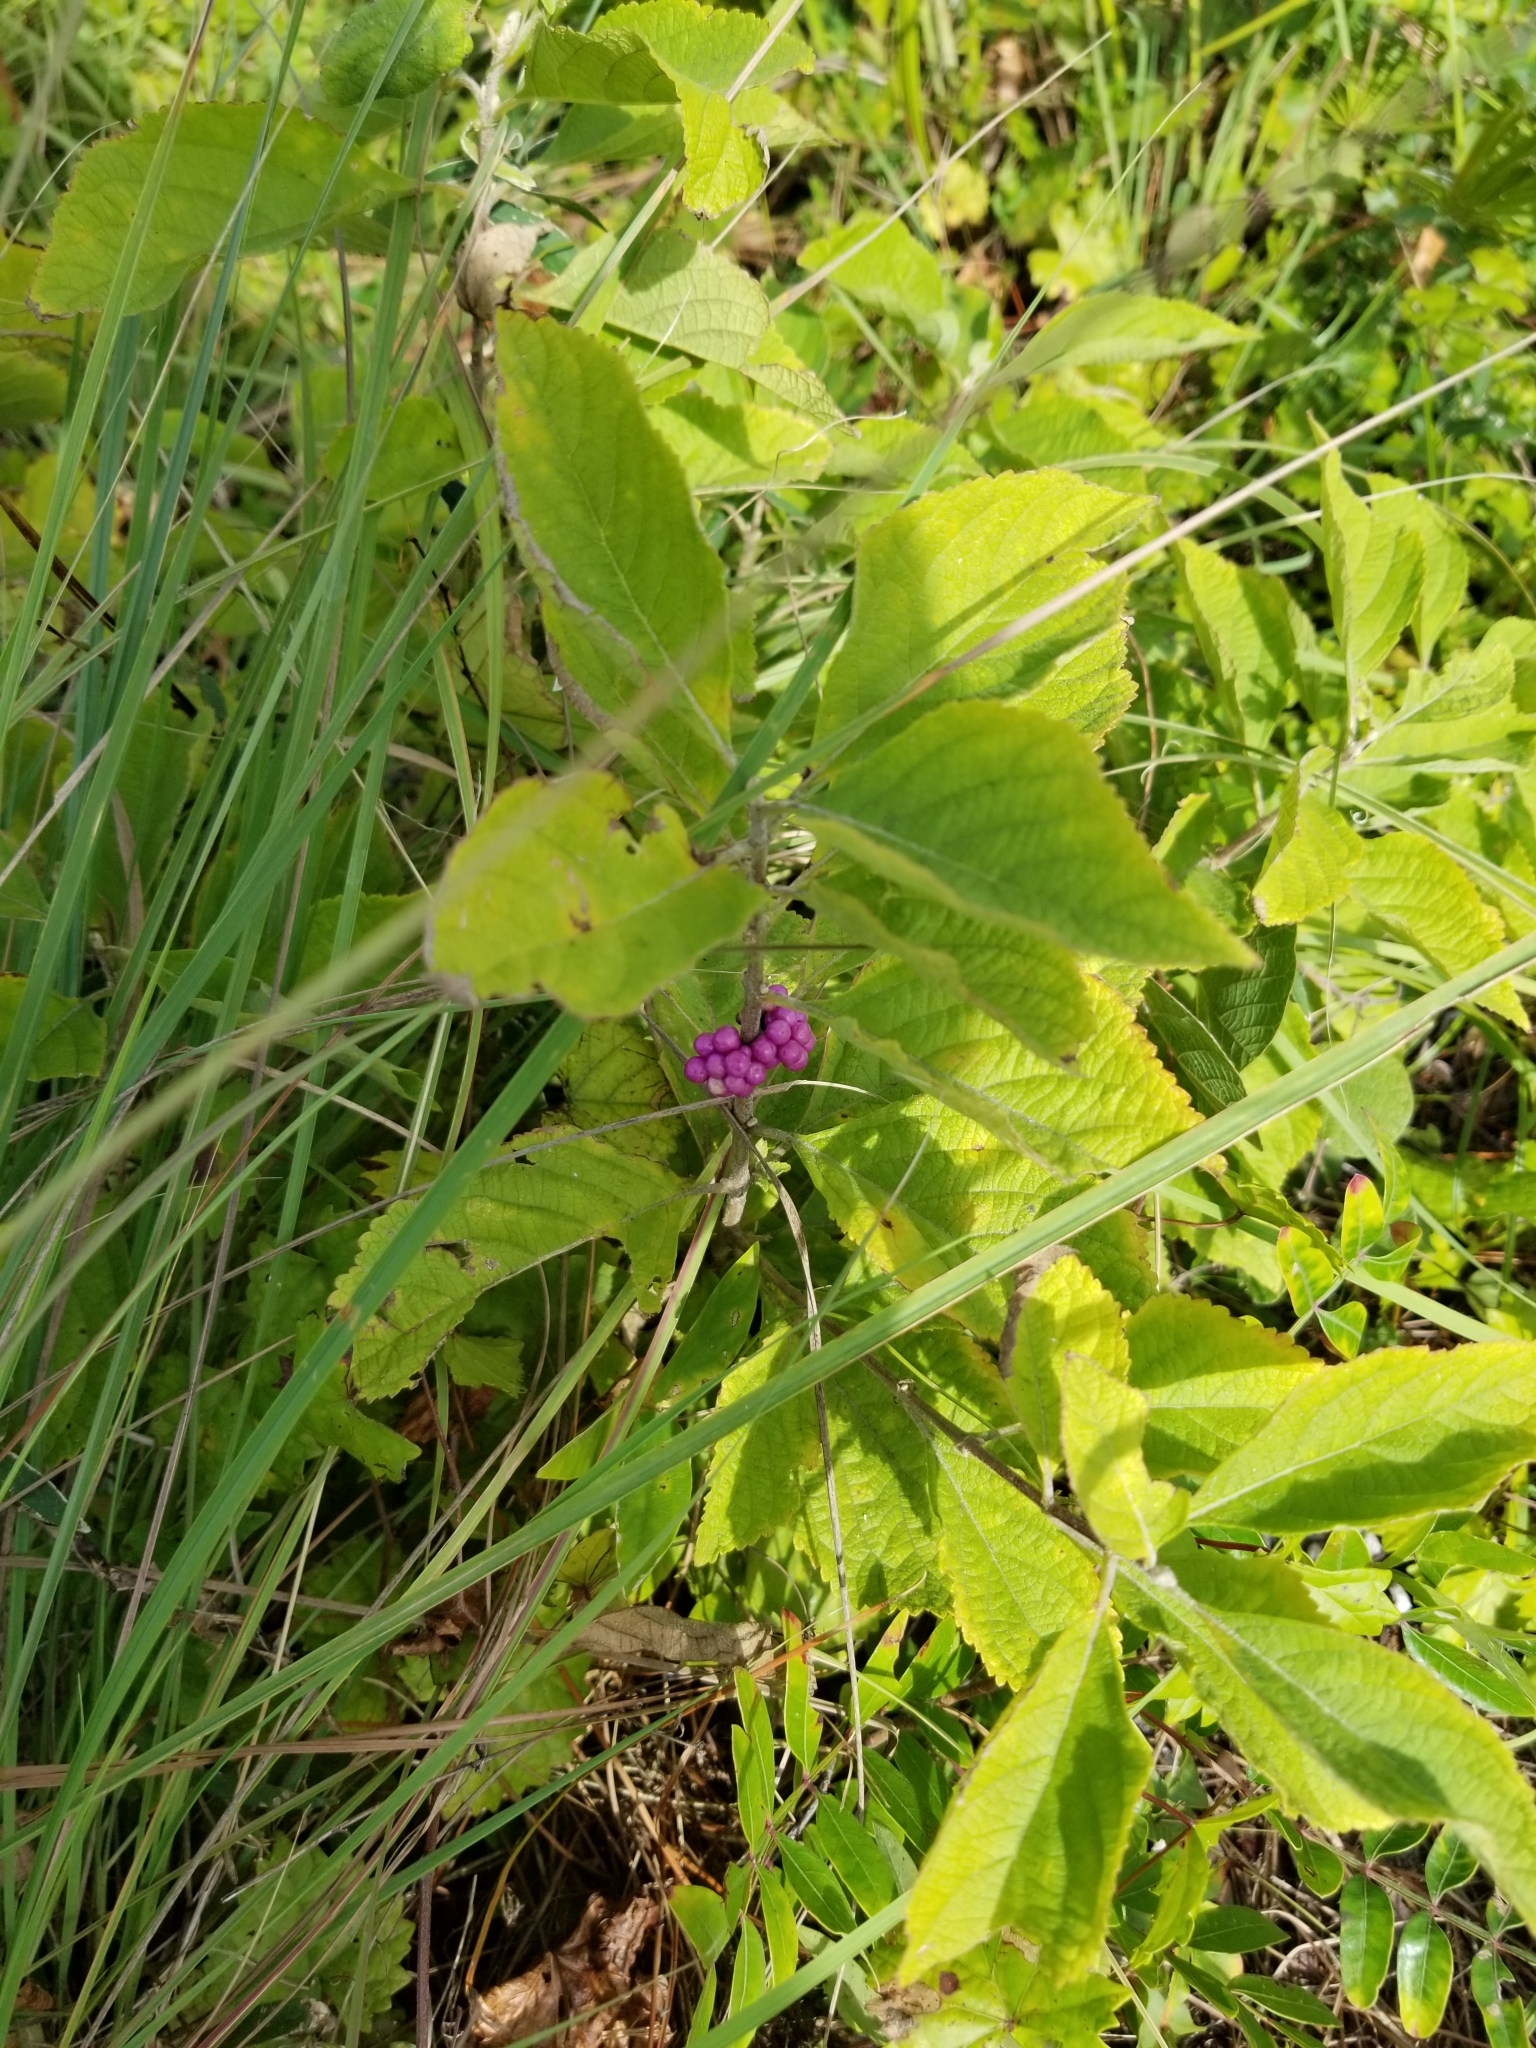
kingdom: Plantae
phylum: Tracheophyta
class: Magnoliopsida
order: Lamiales
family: Lamiaceae
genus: Callicarpa
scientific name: Callicarpa americana
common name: American beautyberry
